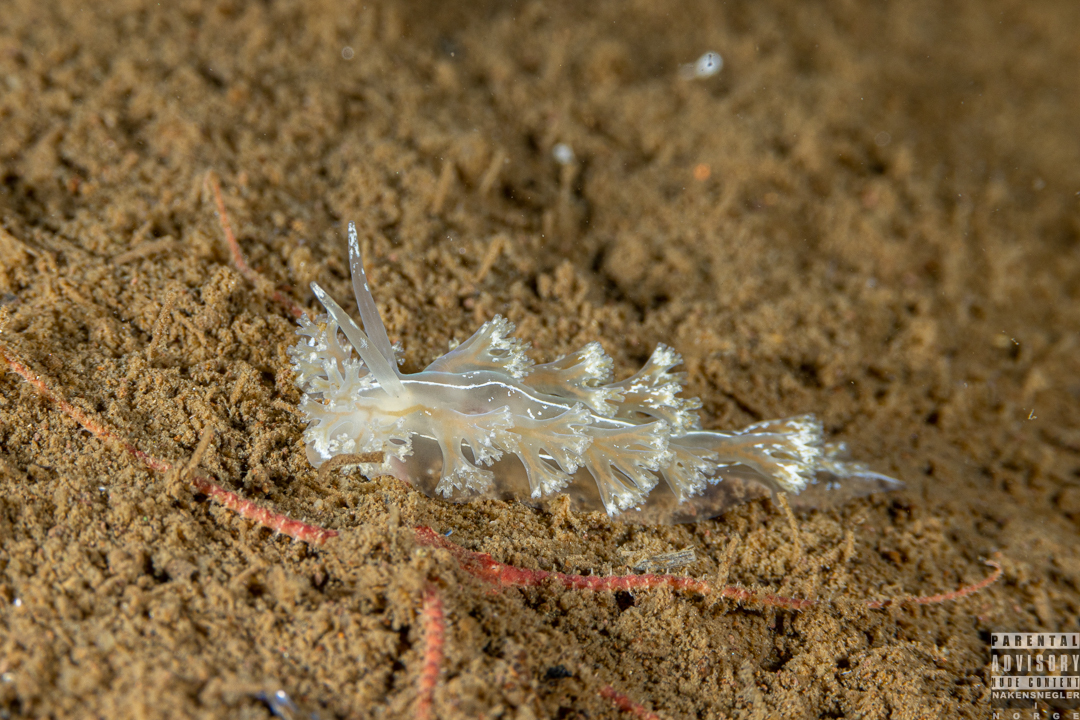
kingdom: Animalia
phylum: Mollusca
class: Gastropoda
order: Nudibranchia
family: Heroidae
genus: Hero
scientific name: Hero formosa
